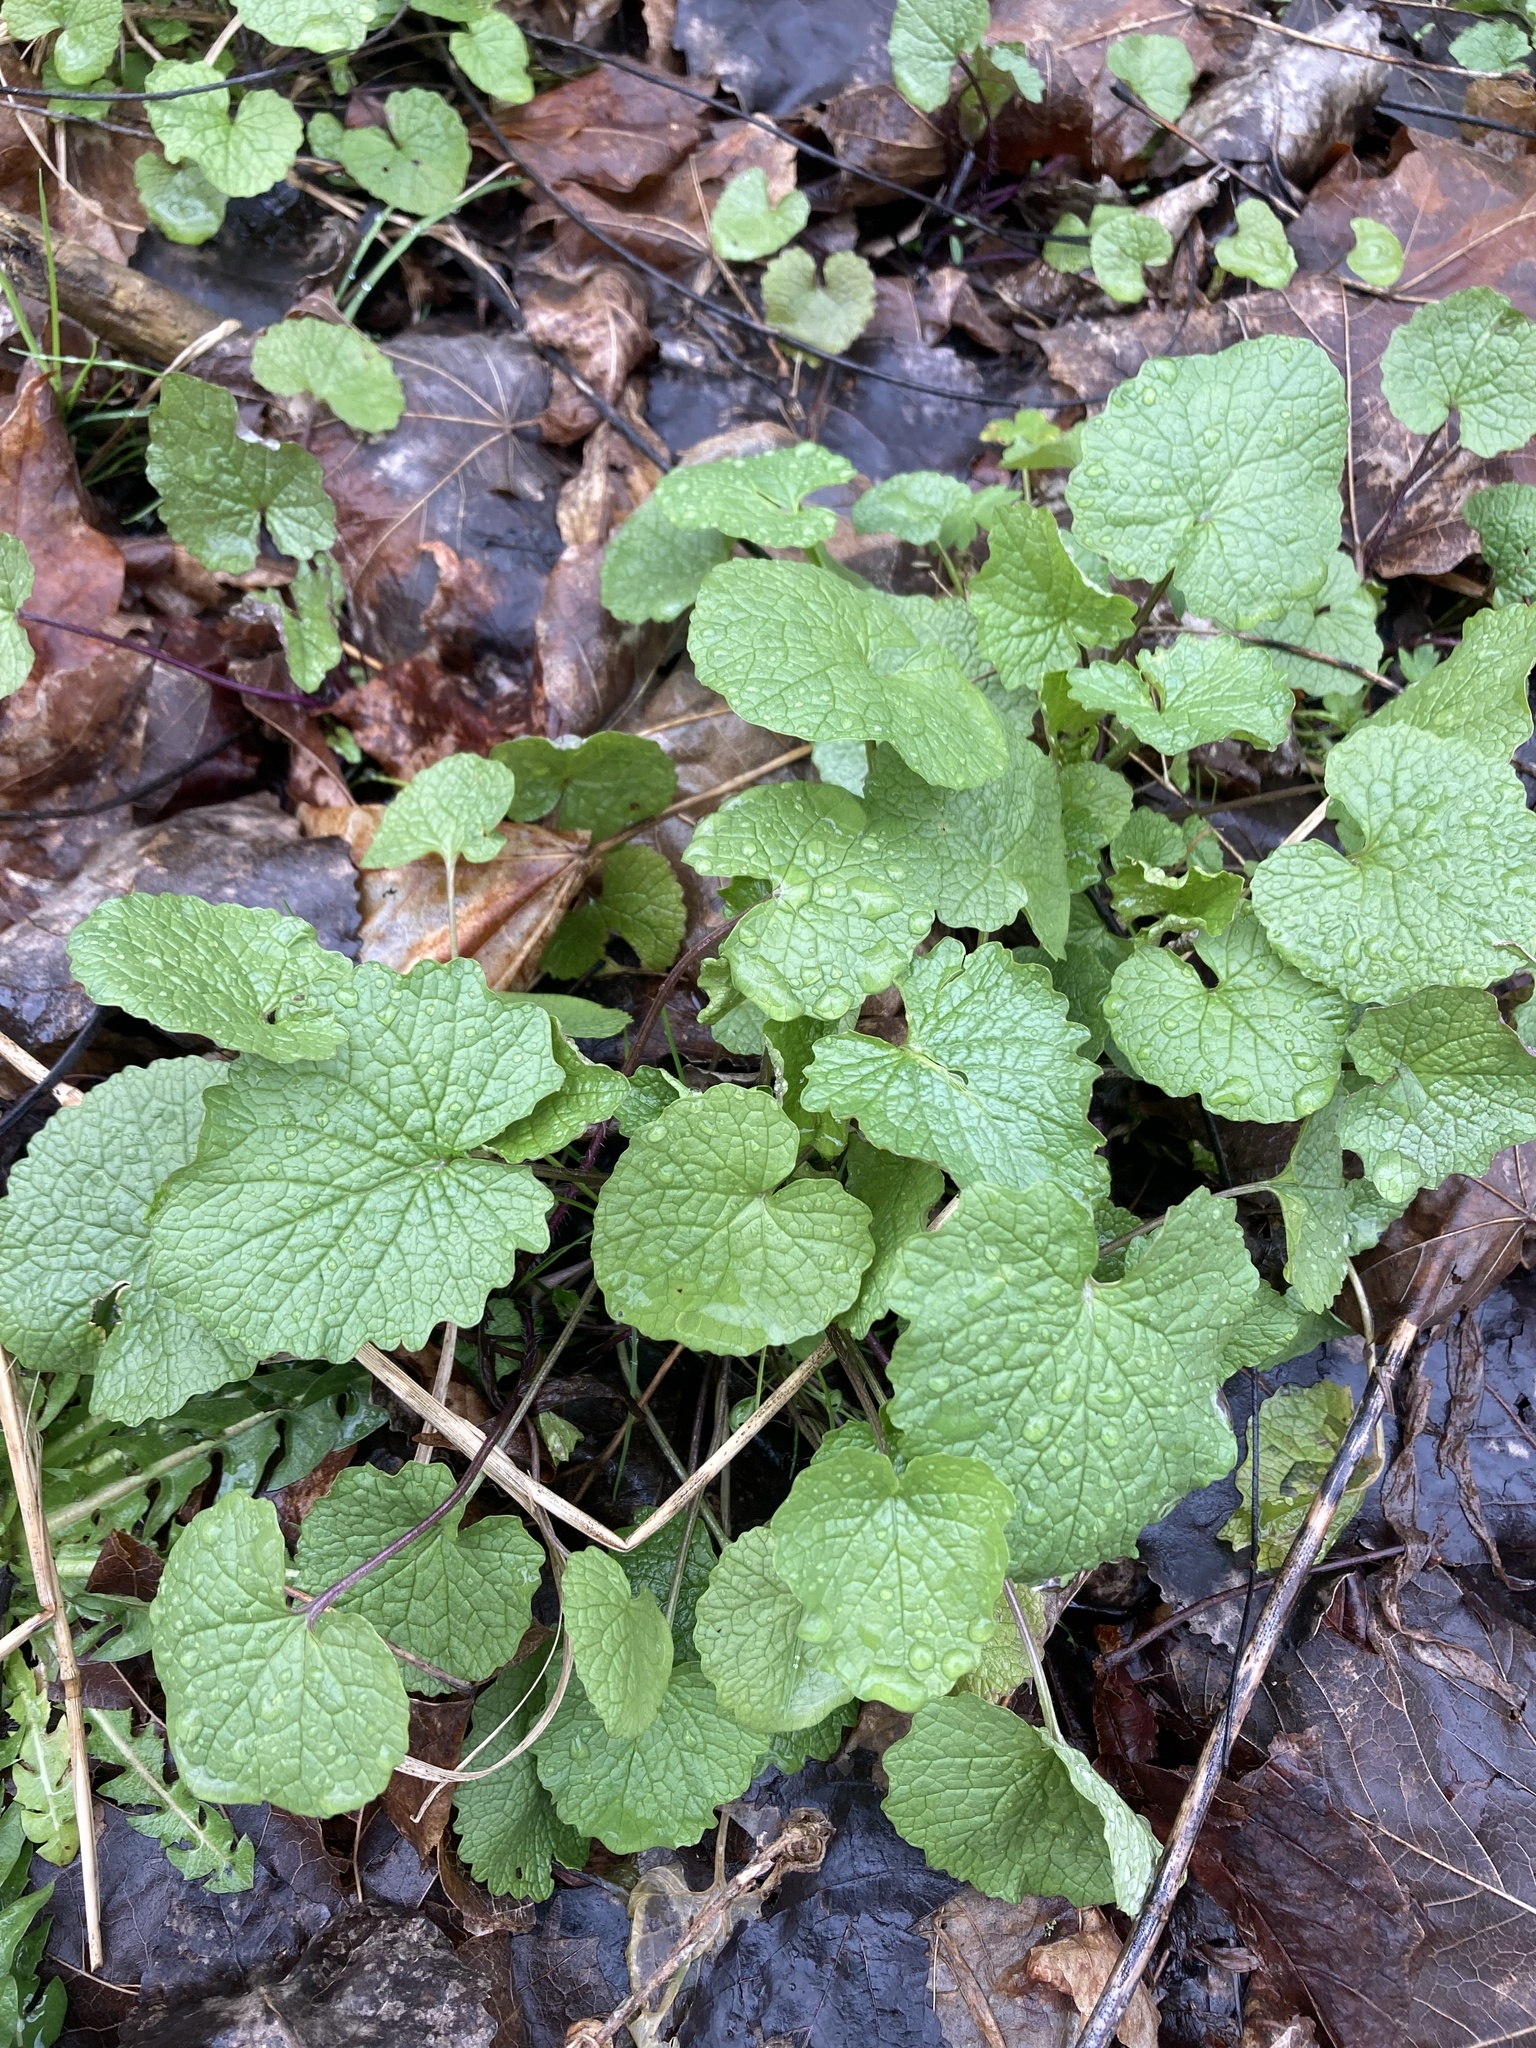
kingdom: Plantae
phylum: Tracheophyta
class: Magnoliopsida
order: Brassicales
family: Brassicaceae
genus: Alliaria
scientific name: Alliaria petiolata
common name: Garlic mustard
